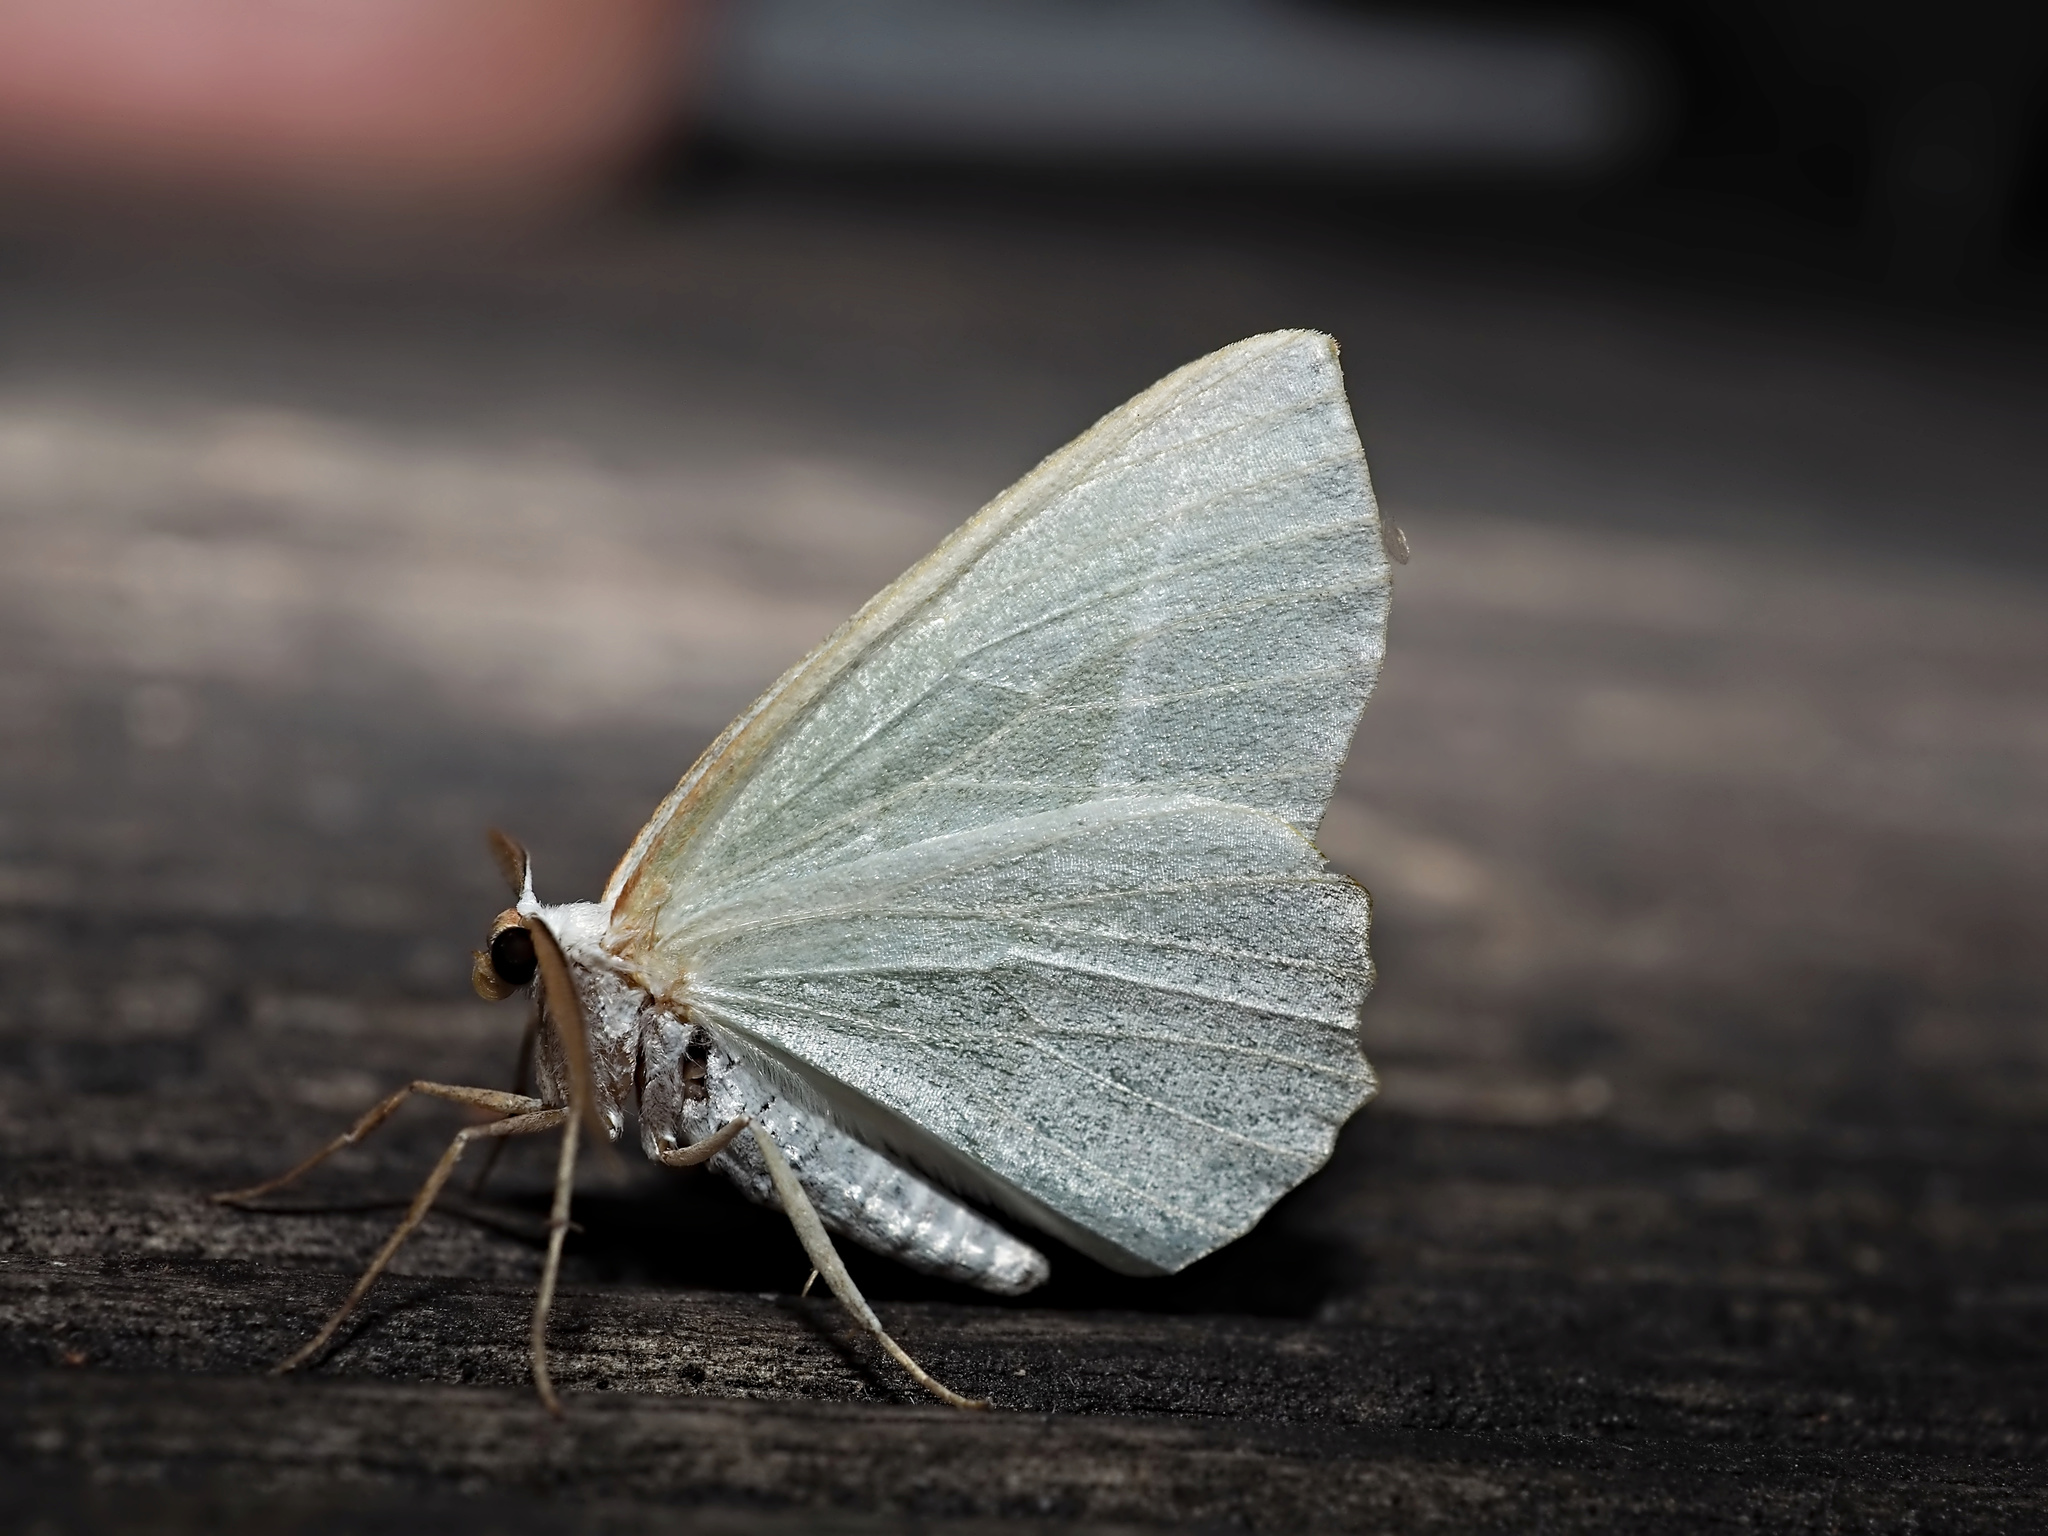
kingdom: Animalia
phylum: Arthropoda
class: Insecta
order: Lepidoptera
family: Geometridae
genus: Campaea
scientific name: Campaea margaritaria
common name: Light emerald
